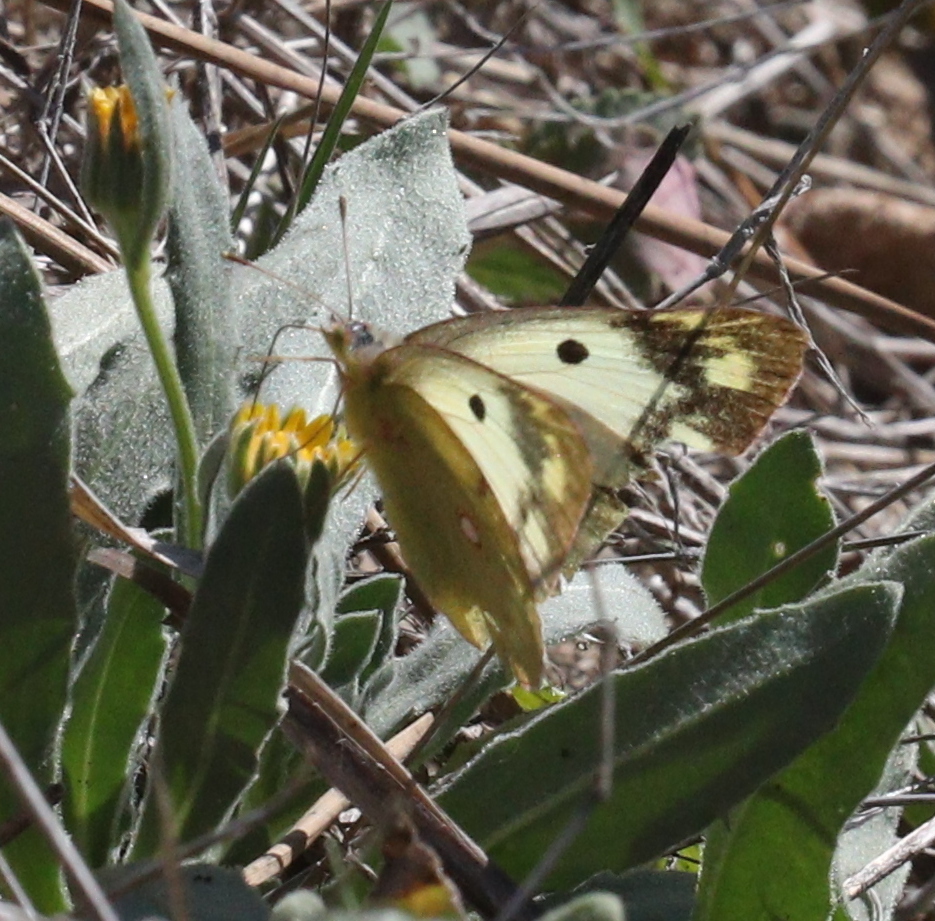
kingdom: Animalia
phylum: Arthropoda
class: Insecta
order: Lepidoptera
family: Pieridae
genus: Colias
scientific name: Colias croceus
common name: Clouded yellow
